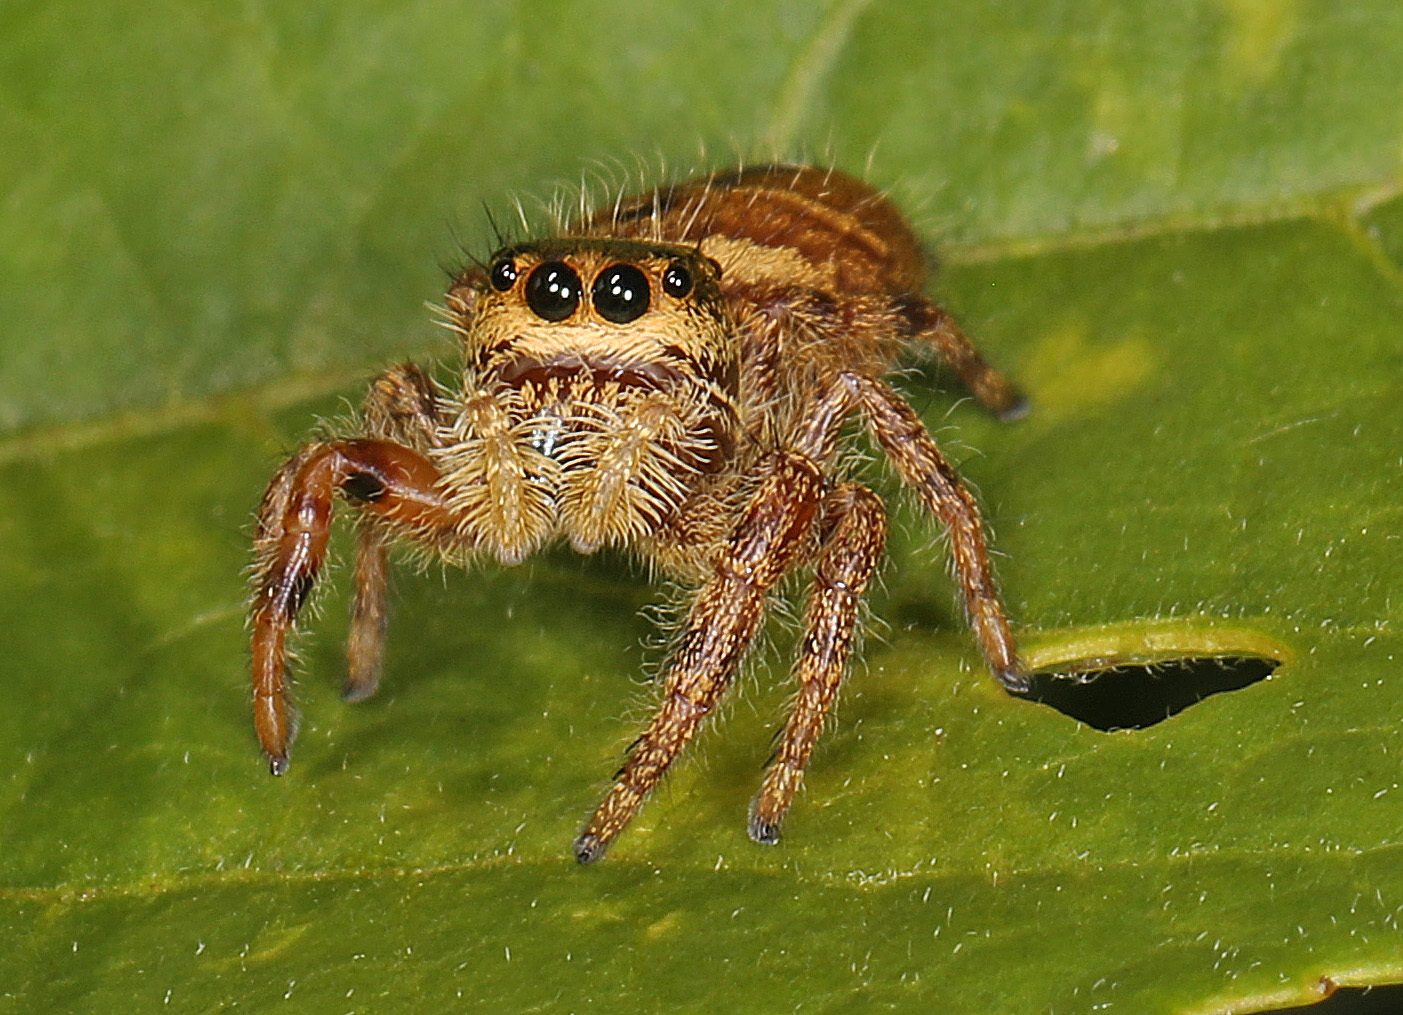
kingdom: Animalia
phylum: Arthropoda
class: Arachnida
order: Araneae
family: Salticidae
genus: Phidippus
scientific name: Phidippus clarus
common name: Brilliant jumping spider
